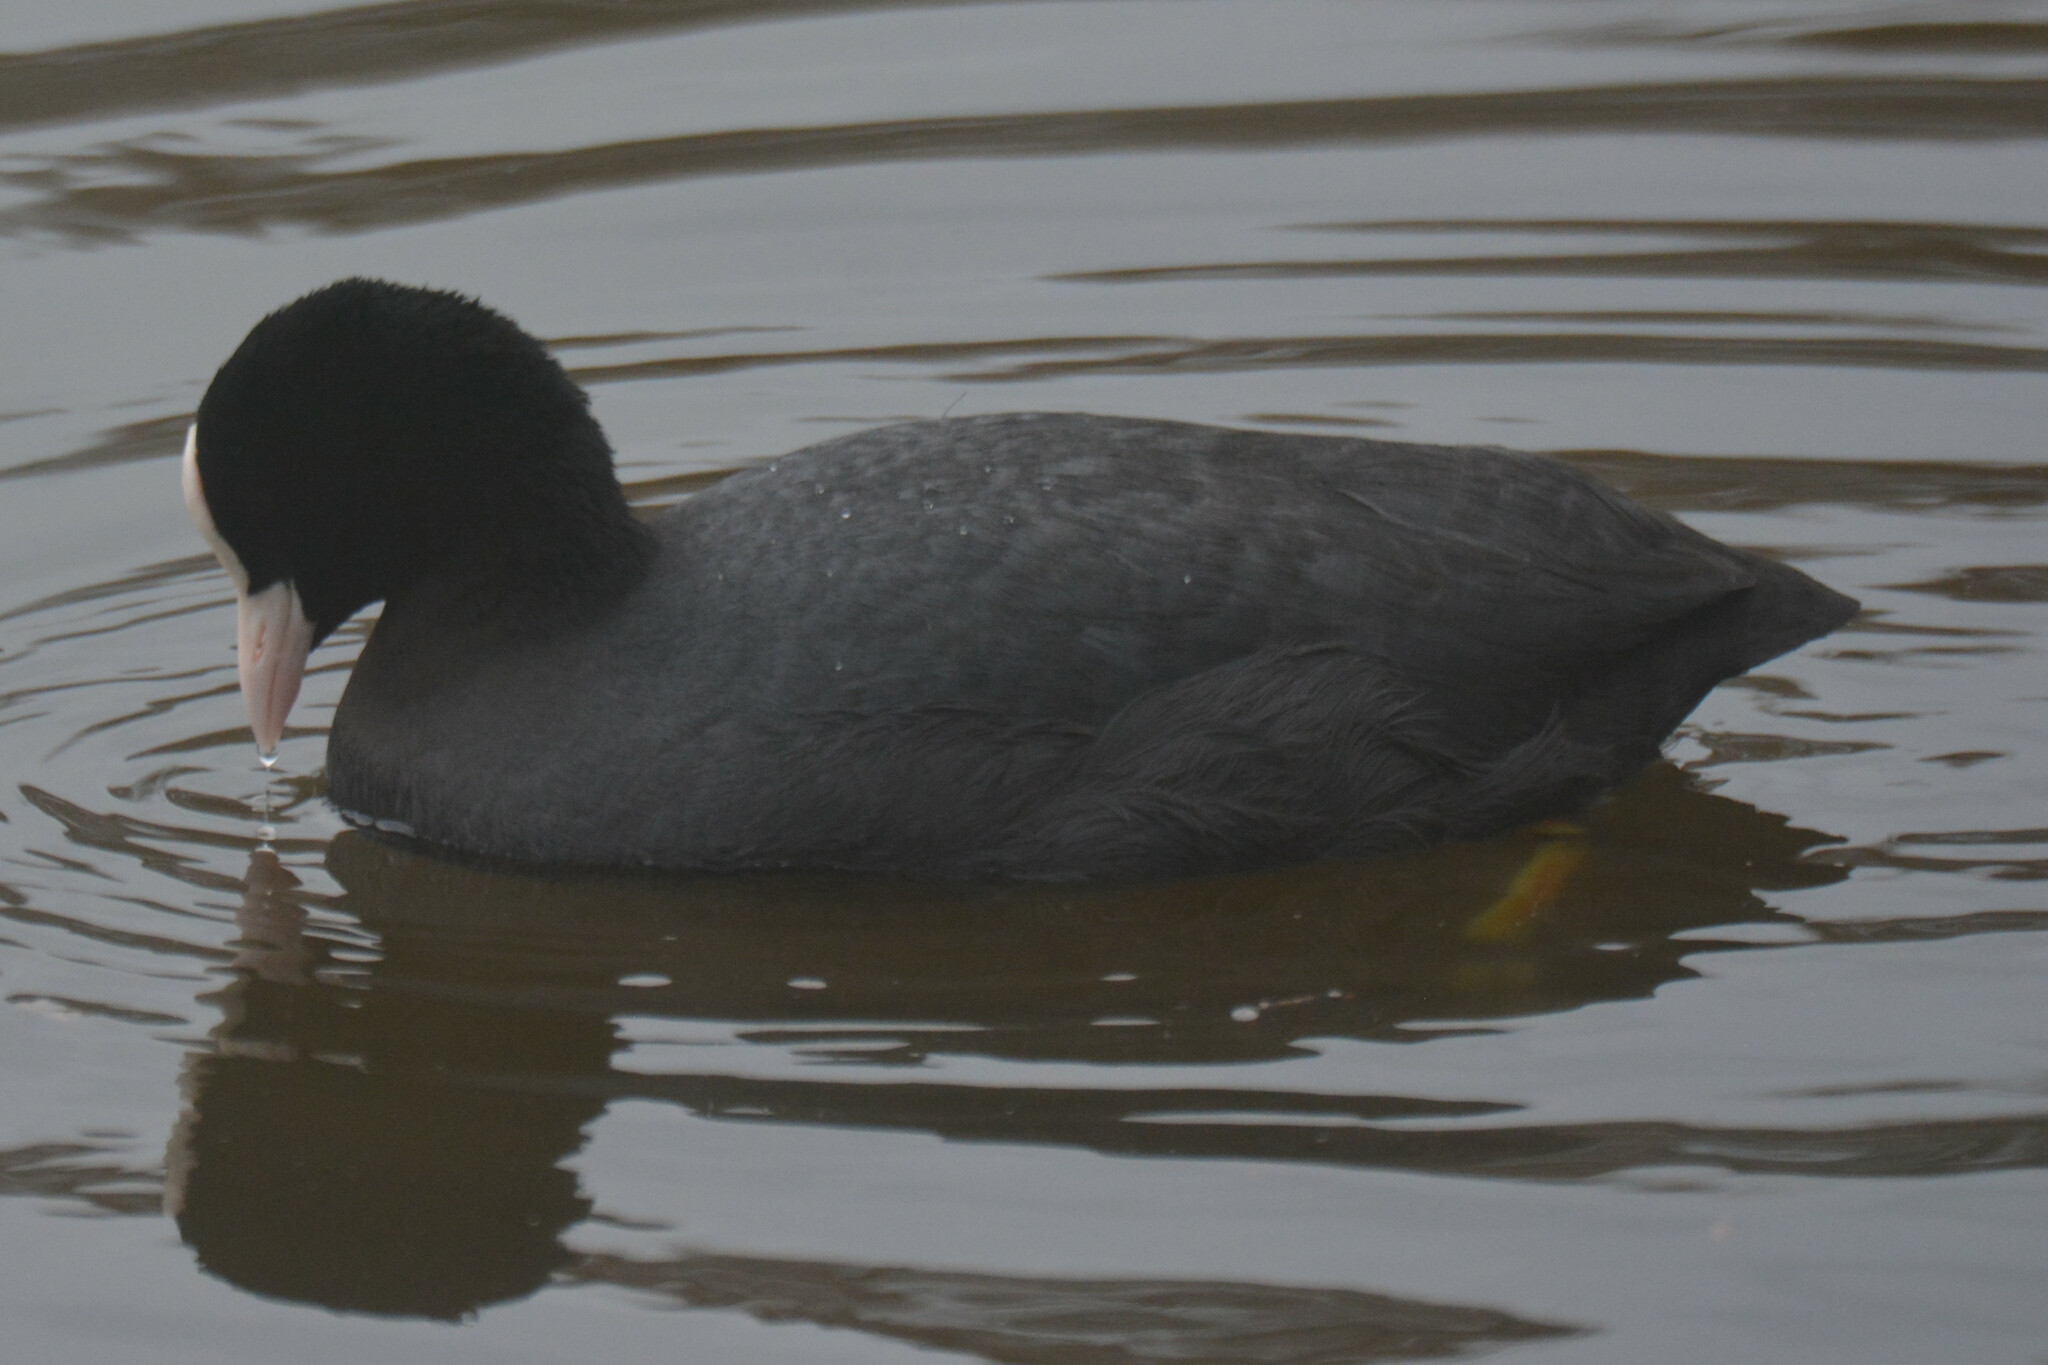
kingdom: Animalia
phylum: Chordata
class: Aves
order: Gruiformes
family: Rallidae
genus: Fulica
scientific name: Fulica atra
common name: Eurasian coot
